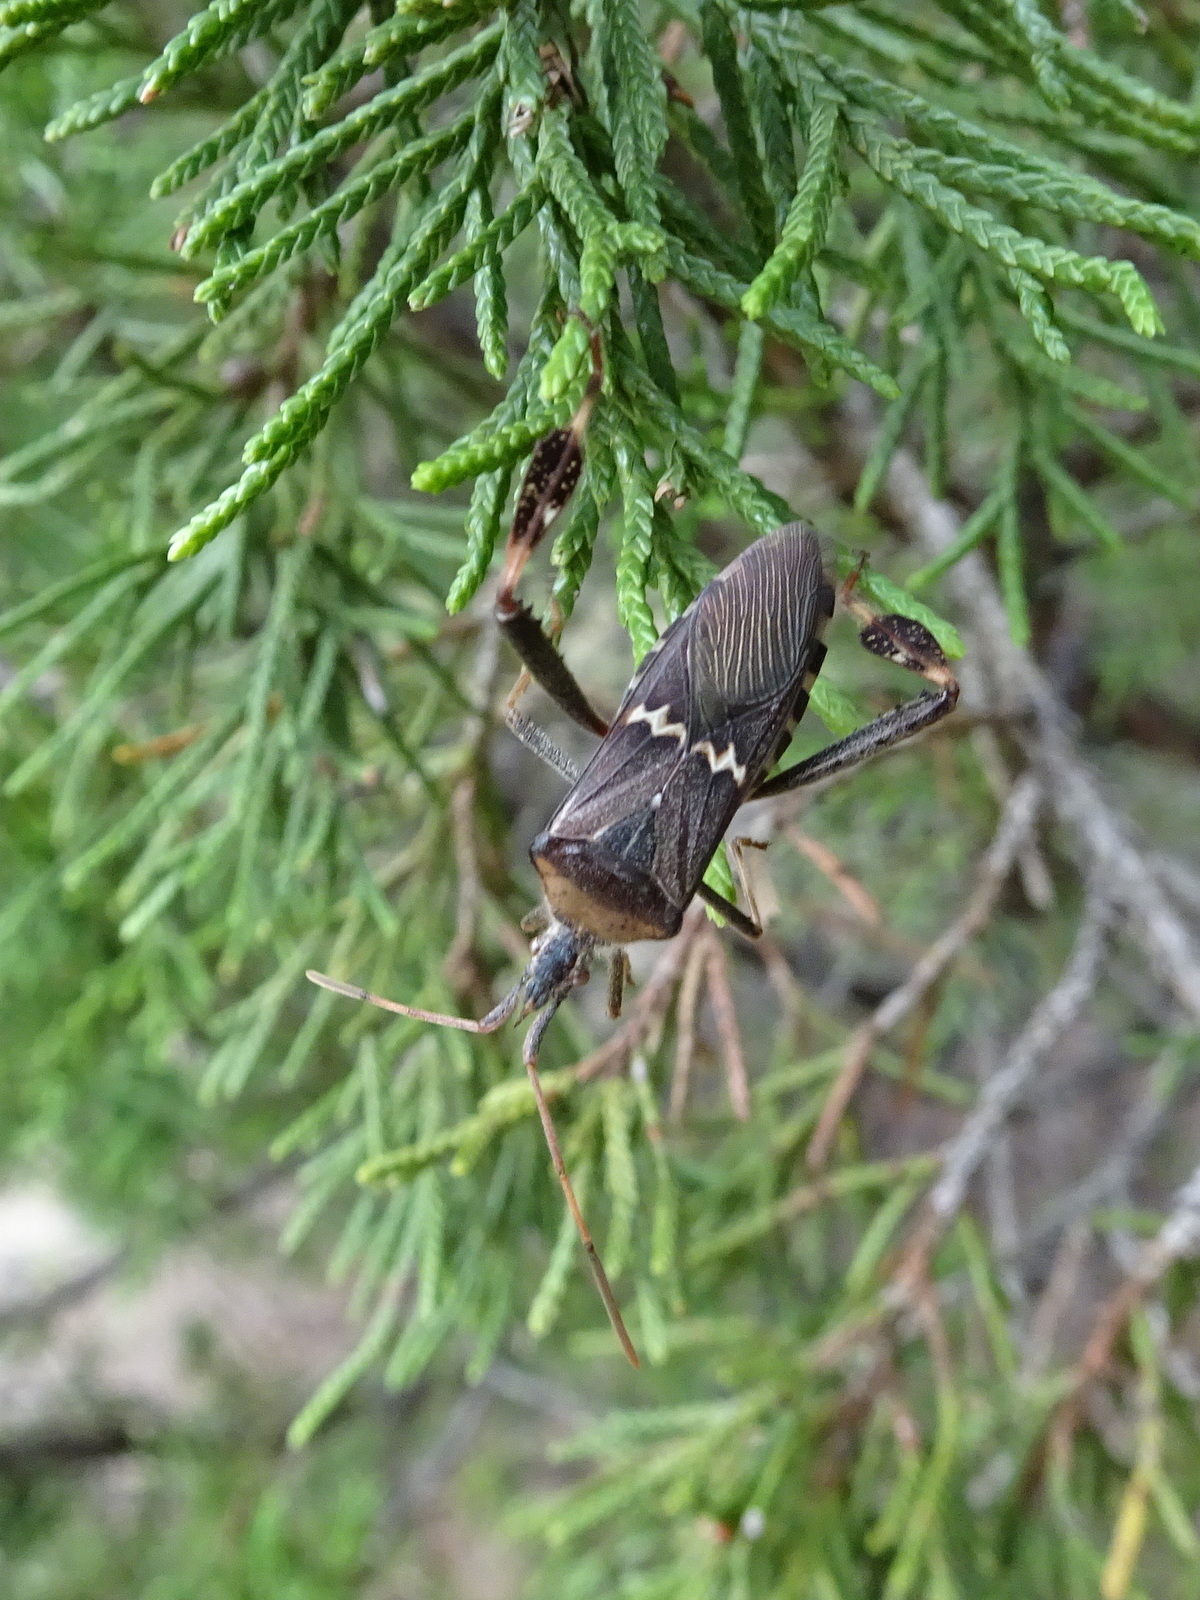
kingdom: Animalia
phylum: Arthropoda
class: Insecta
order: Hemiptera
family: Coreidae
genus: Leptoglossus
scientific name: Leptoglossus clypealis
